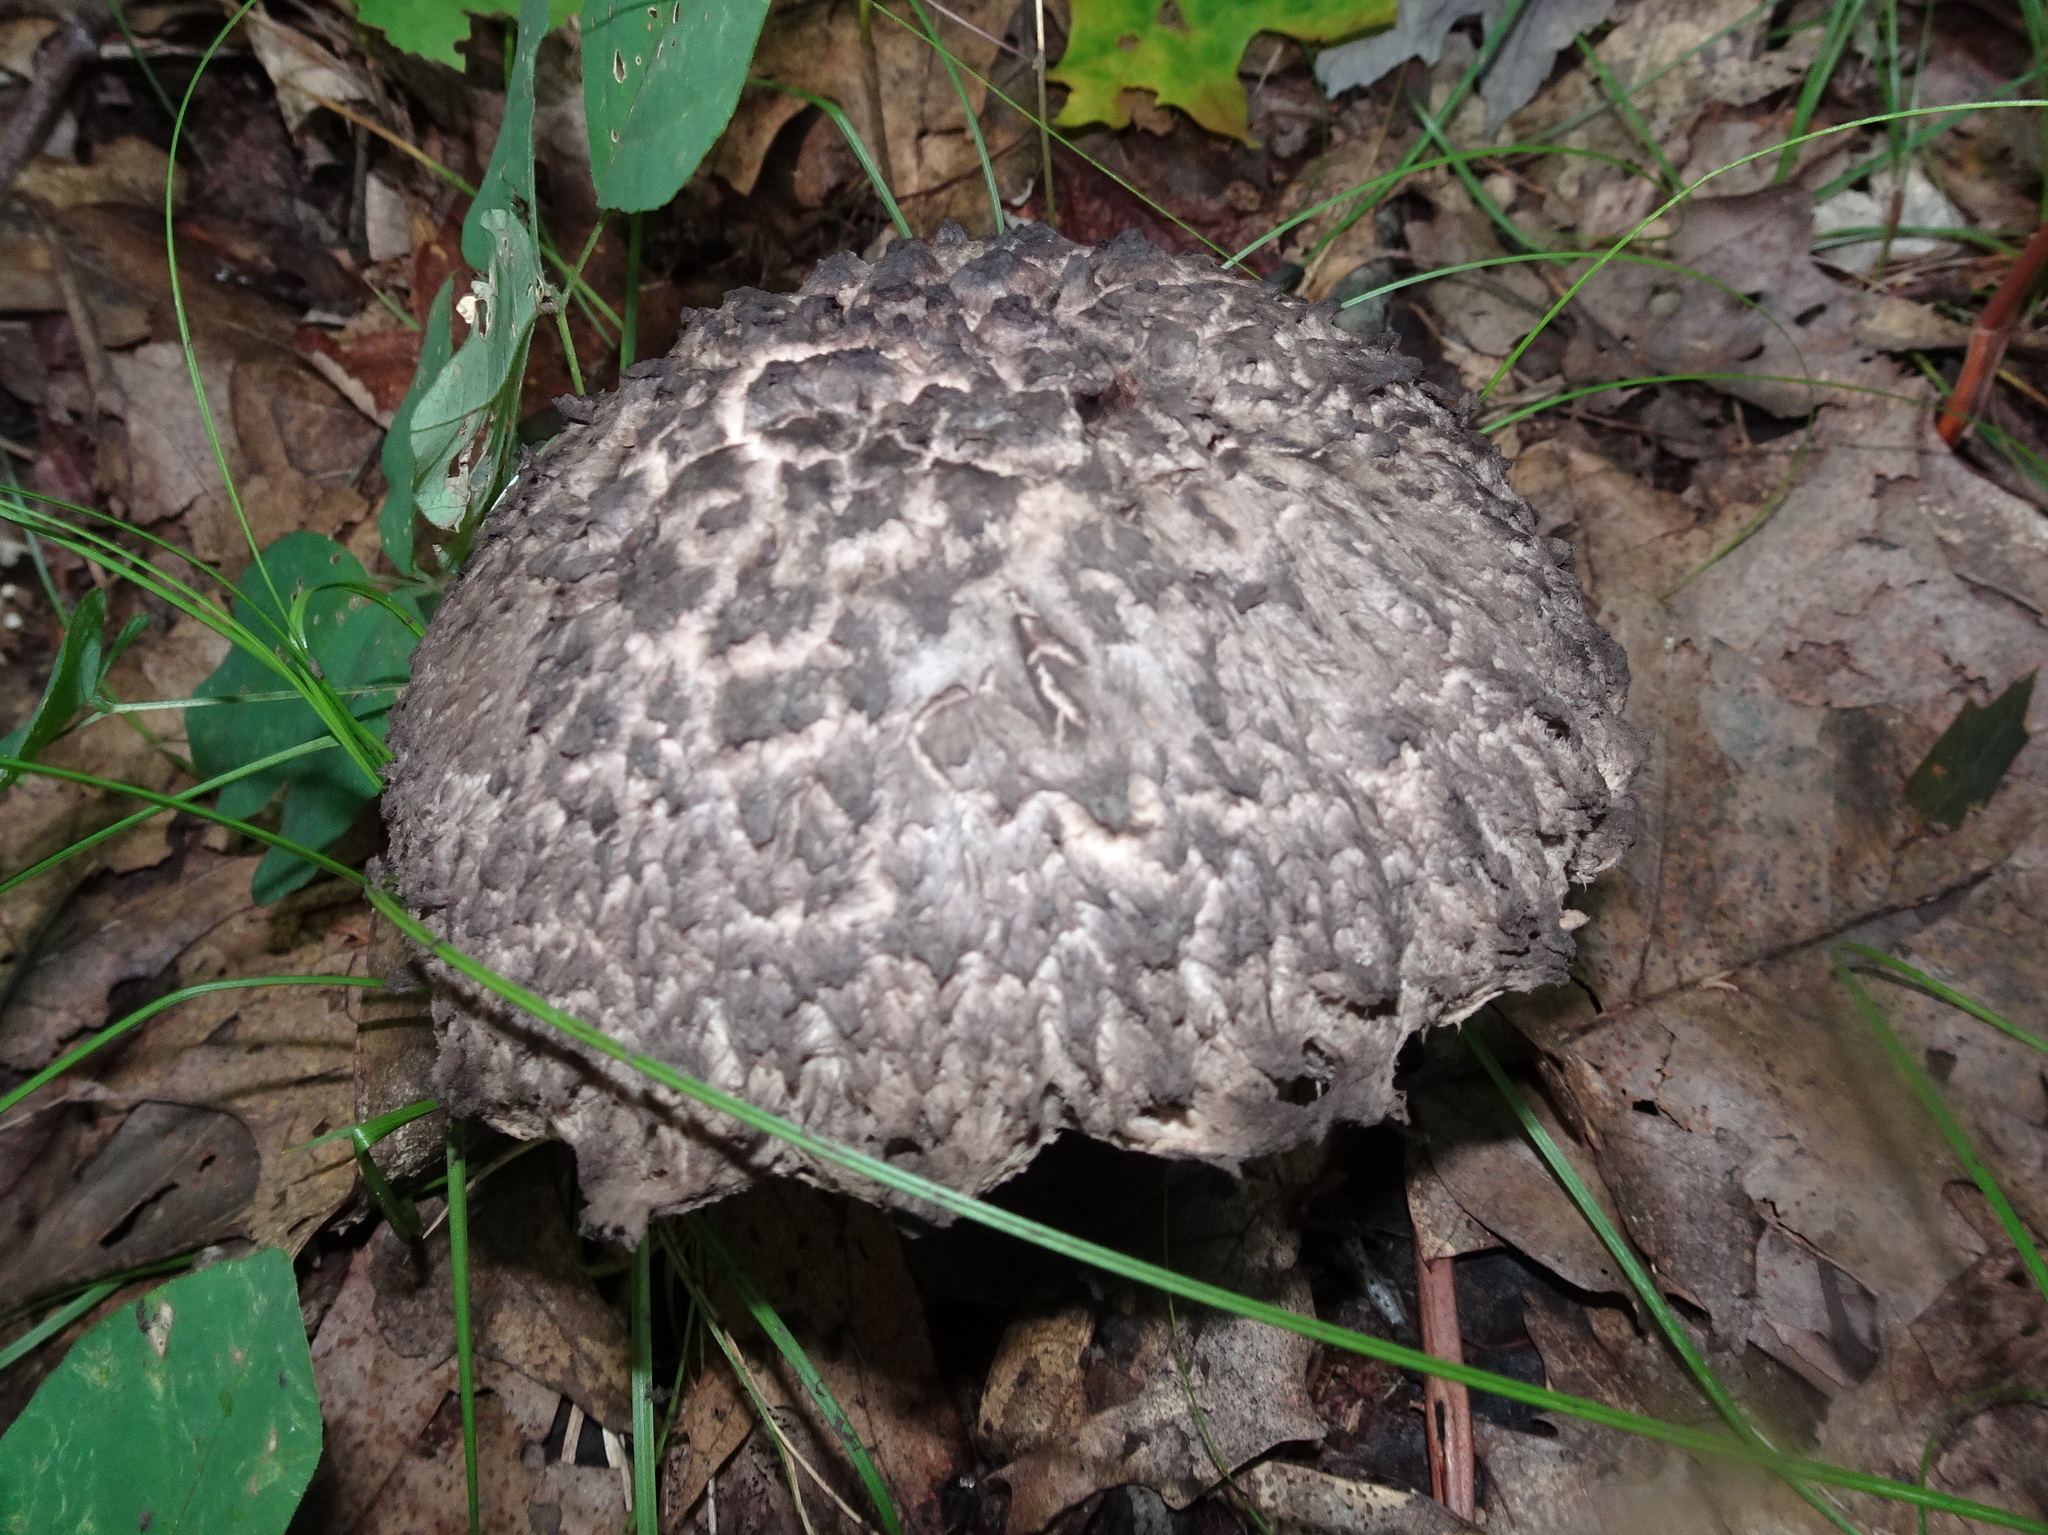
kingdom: Fungi
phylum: Basidiomycota
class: Agaricomycetes
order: Boletales
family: Boletaceae
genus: Strobilomyces
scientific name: Strobilomyces strobilaceus
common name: Old man of the woods
